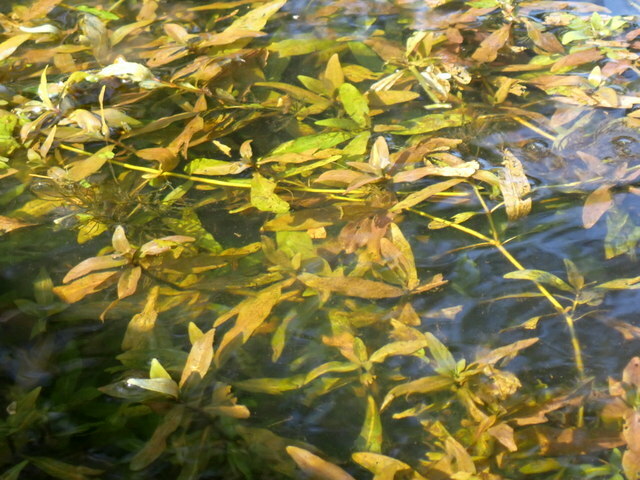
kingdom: Plantae
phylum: Tracheophyta
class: Magnoliopsida
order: Lamiales
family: Acanthaceae
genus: Hygrophila
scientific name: Hygrophila polysperma
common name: Indian swampweed
